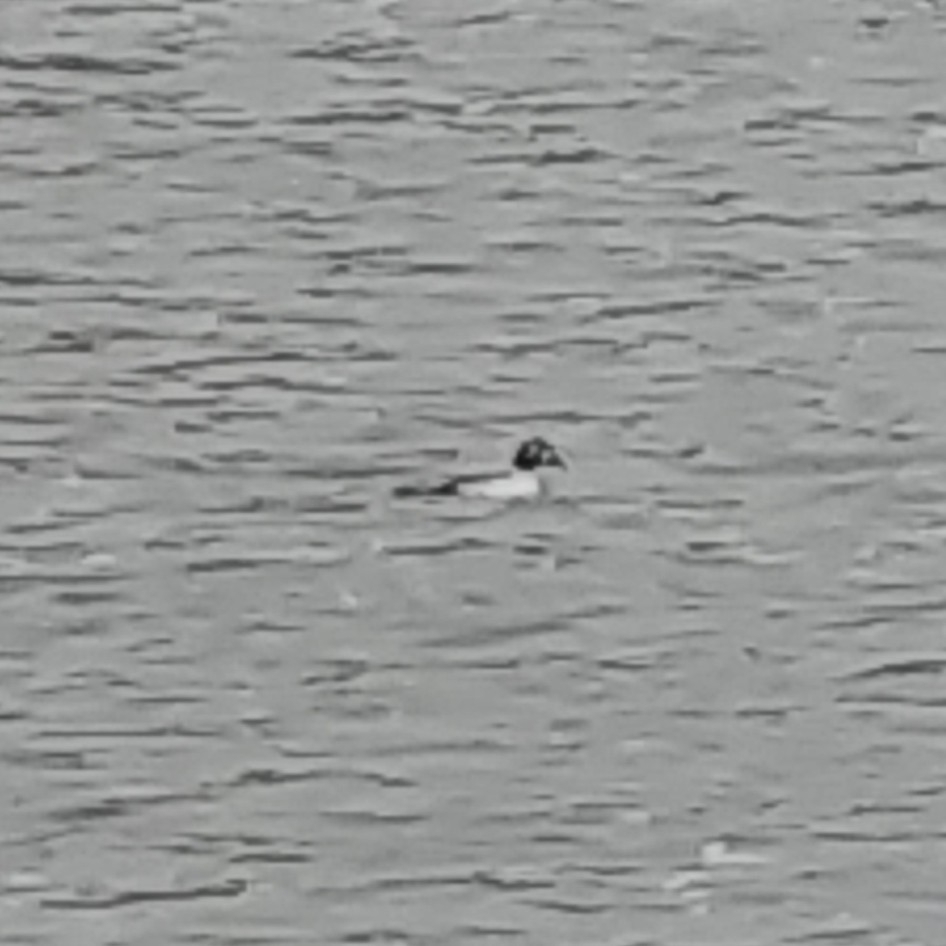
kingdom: Animalia
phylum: Chordata
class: Aves
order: Anseriformes
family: Anatidae
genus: Bucephala
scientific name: Bucephala clangula
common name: Common goldeneye
